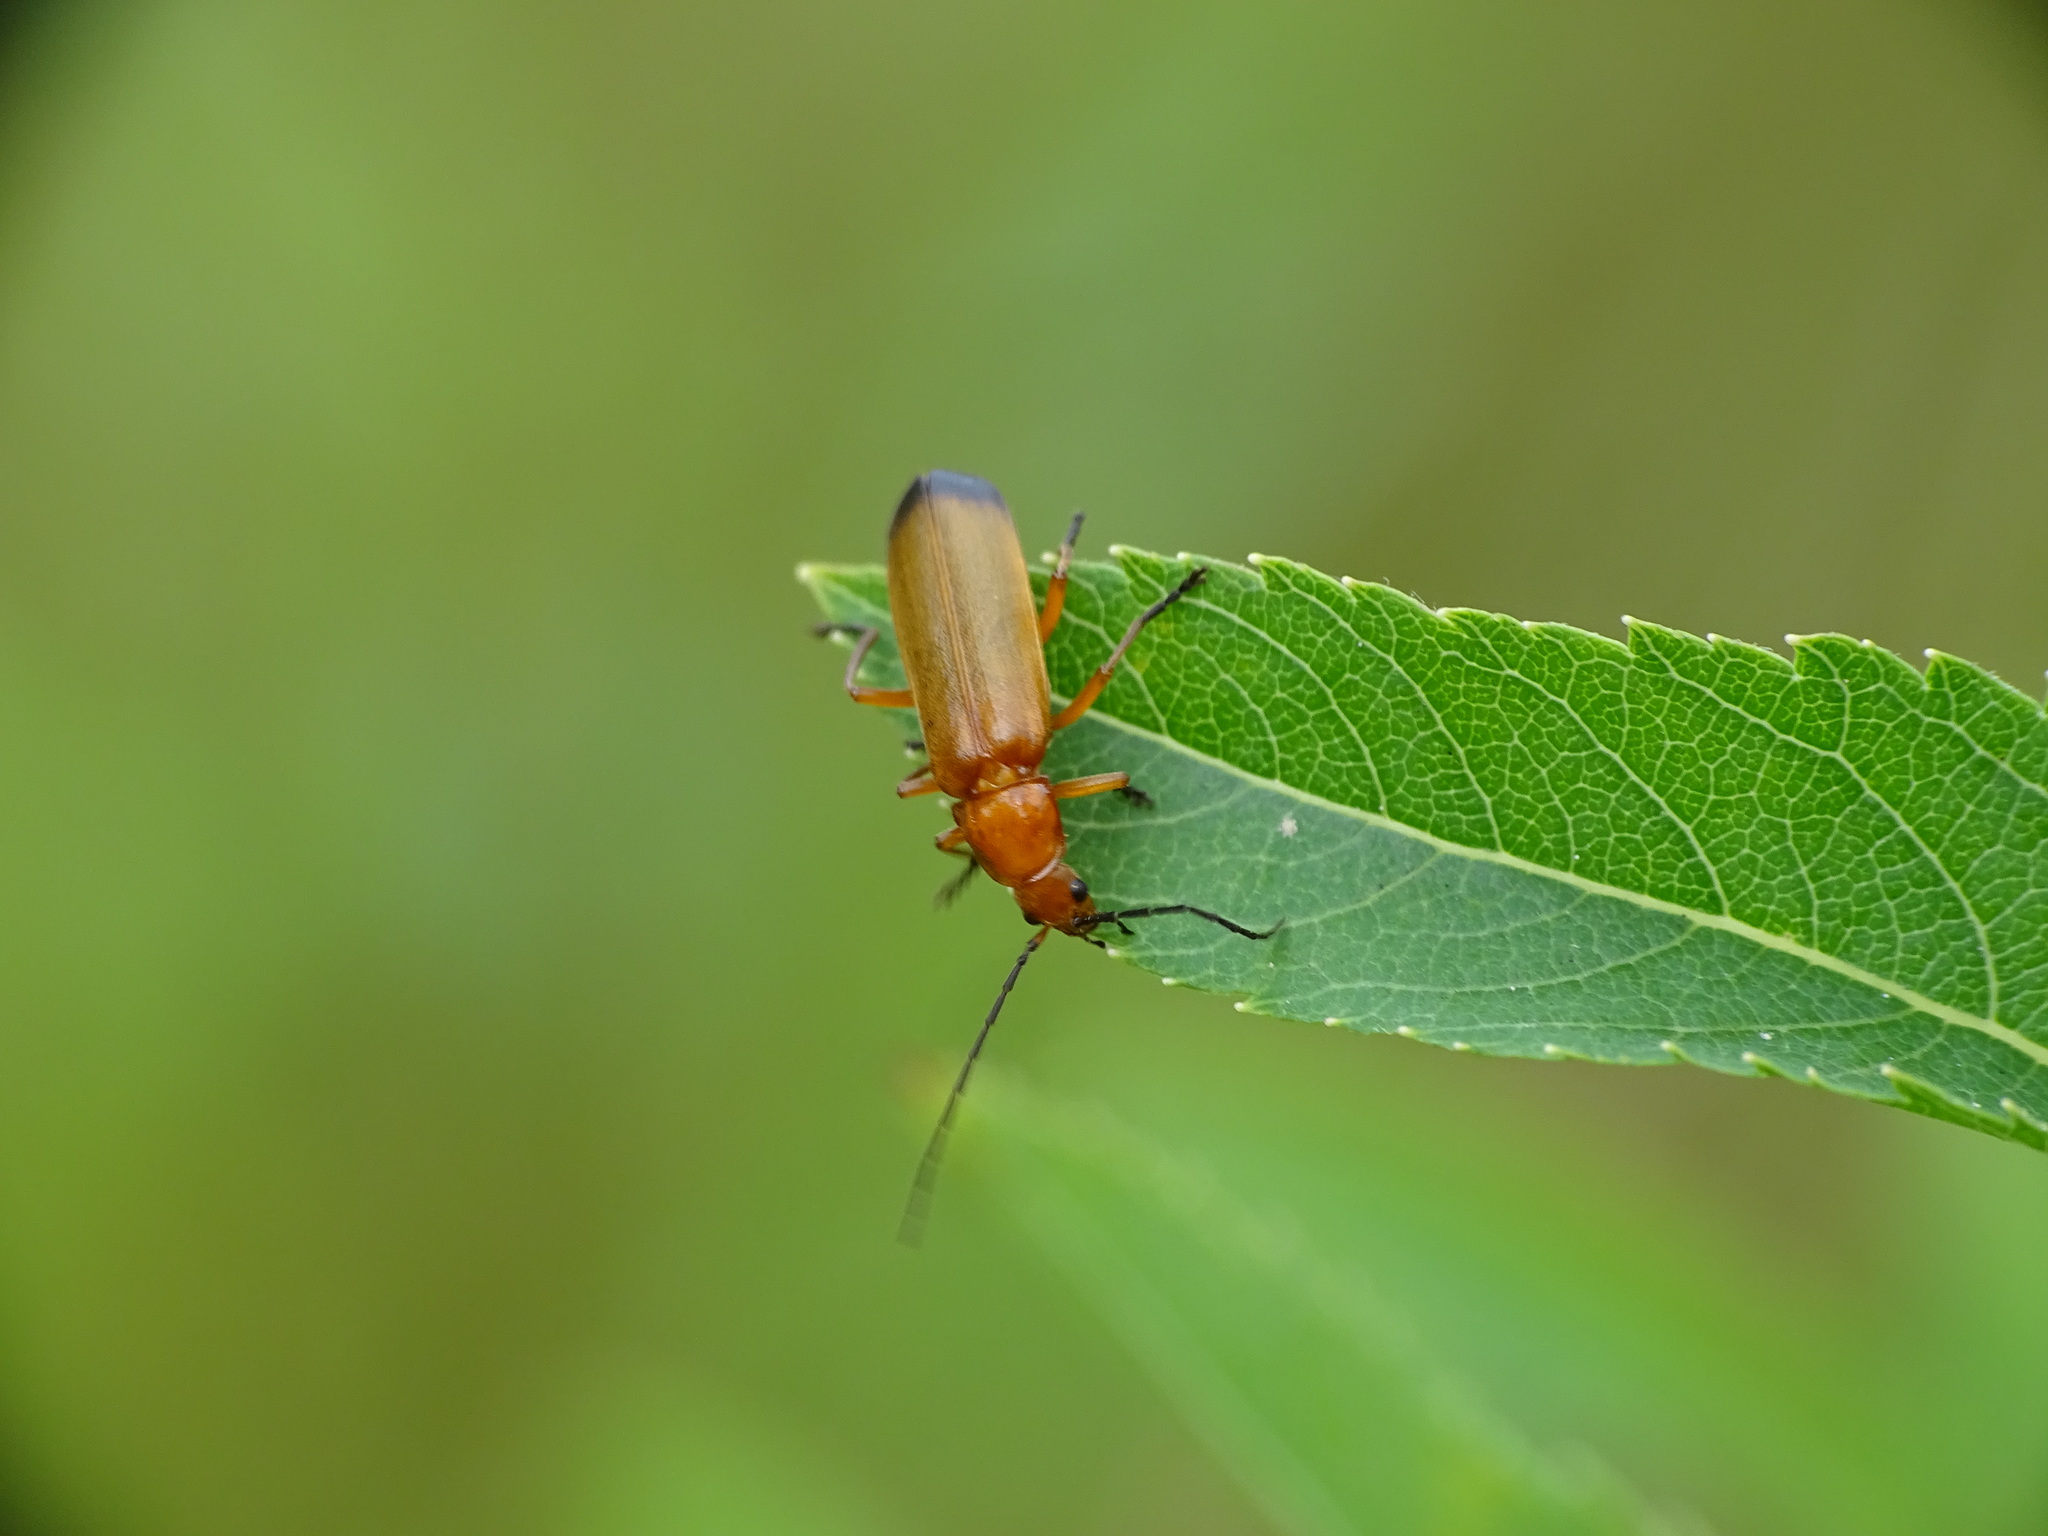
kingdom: Animalia
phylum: Arthropoda
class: Insecta
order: Coleoptera
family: Cantharidae
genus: Rhagonycha
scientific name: Rhagonycha fulva
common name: Common red soldier beetle
